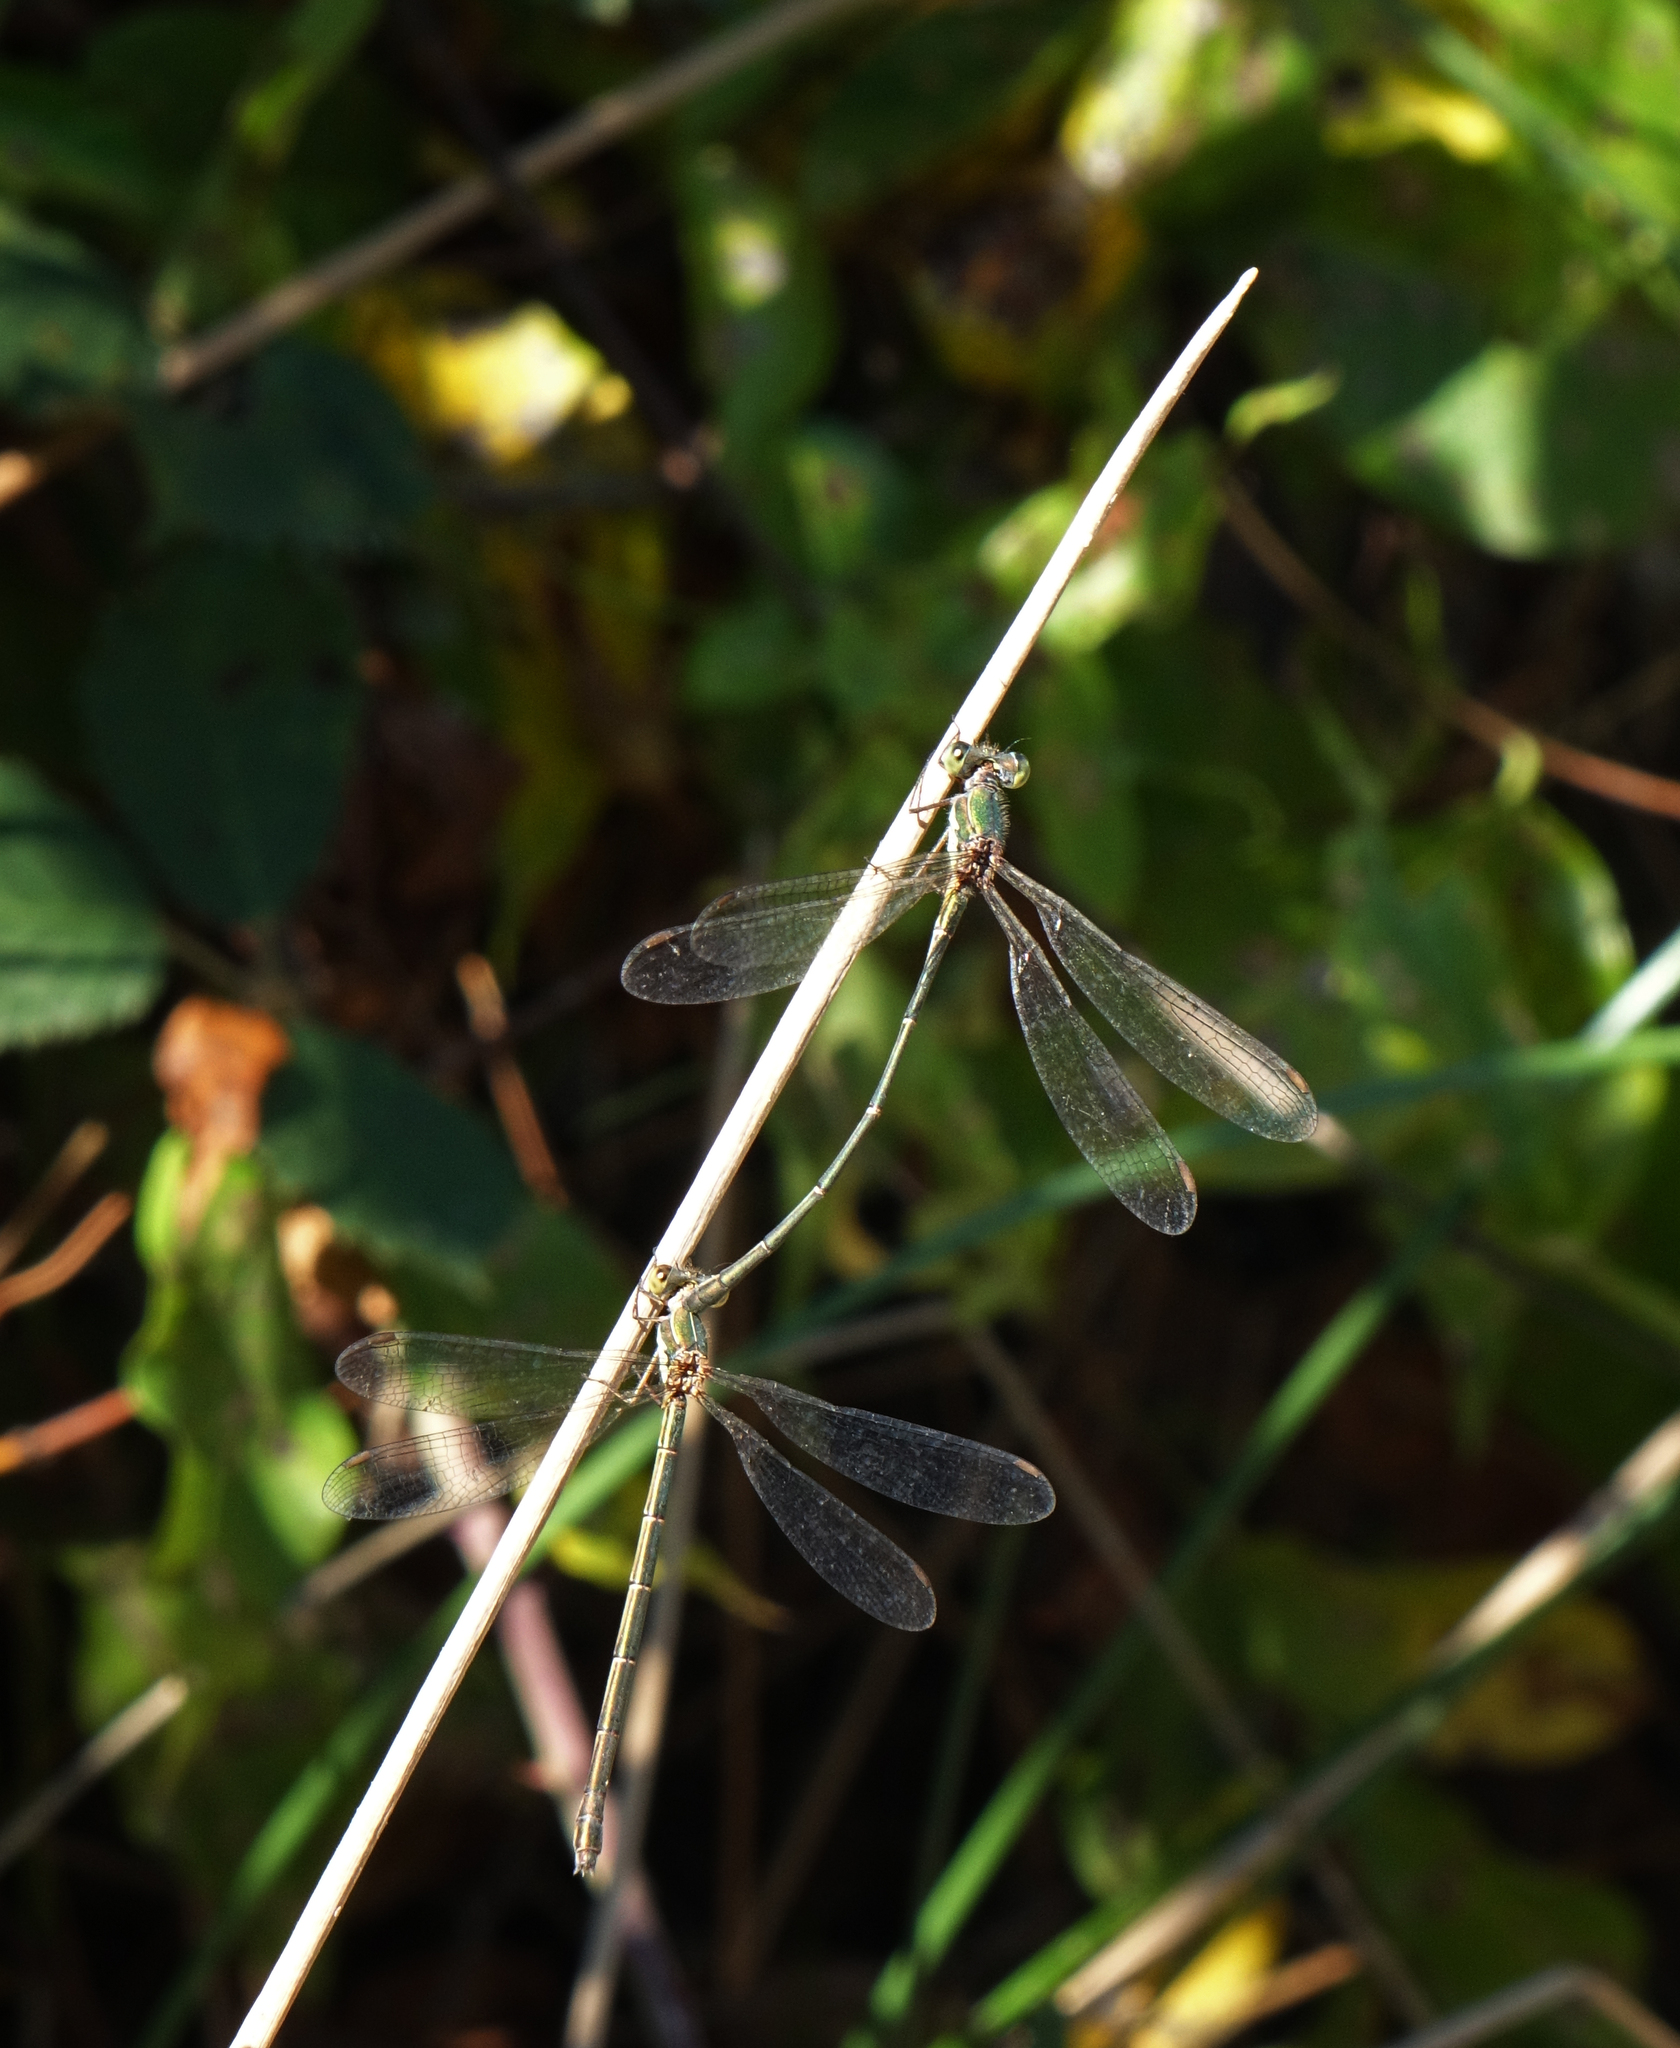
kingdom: Animalia
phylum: Arthropoda
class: Insecta
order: Odonata
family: Lestidae
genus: Chalcolestes
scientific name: Chalcolestes parvidens
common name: Eastern willow spreadwing
